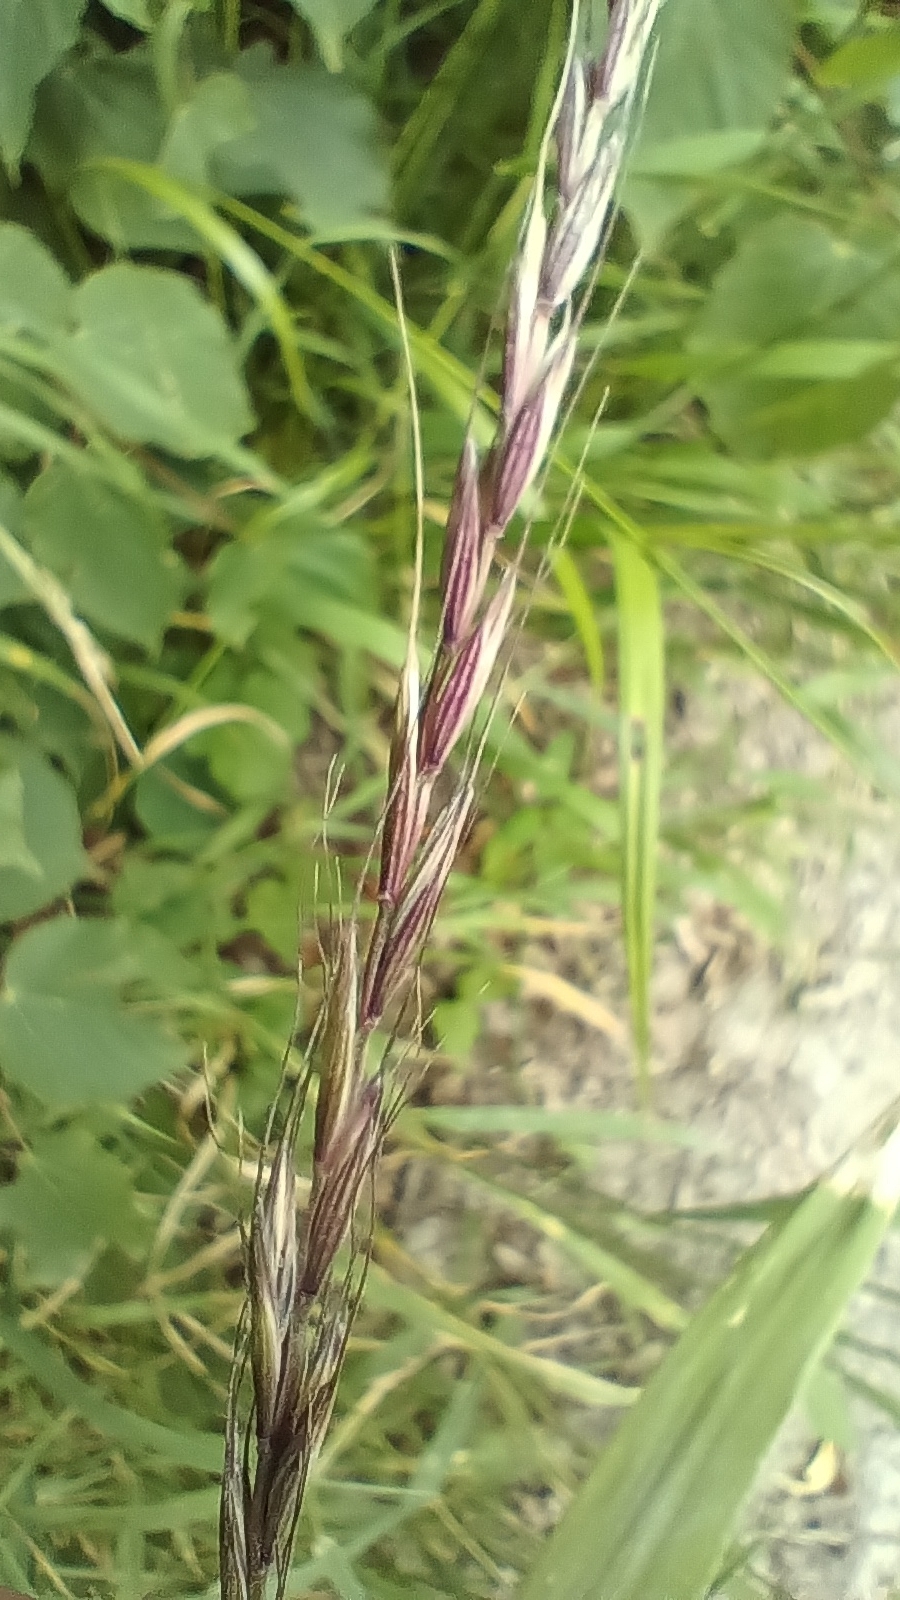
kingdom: Plantae
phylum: Tracheophyta
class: Liliopsida
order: Poales
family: Poaceae
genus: Elymus
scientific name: Elymus caninus
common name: Bearded couch
